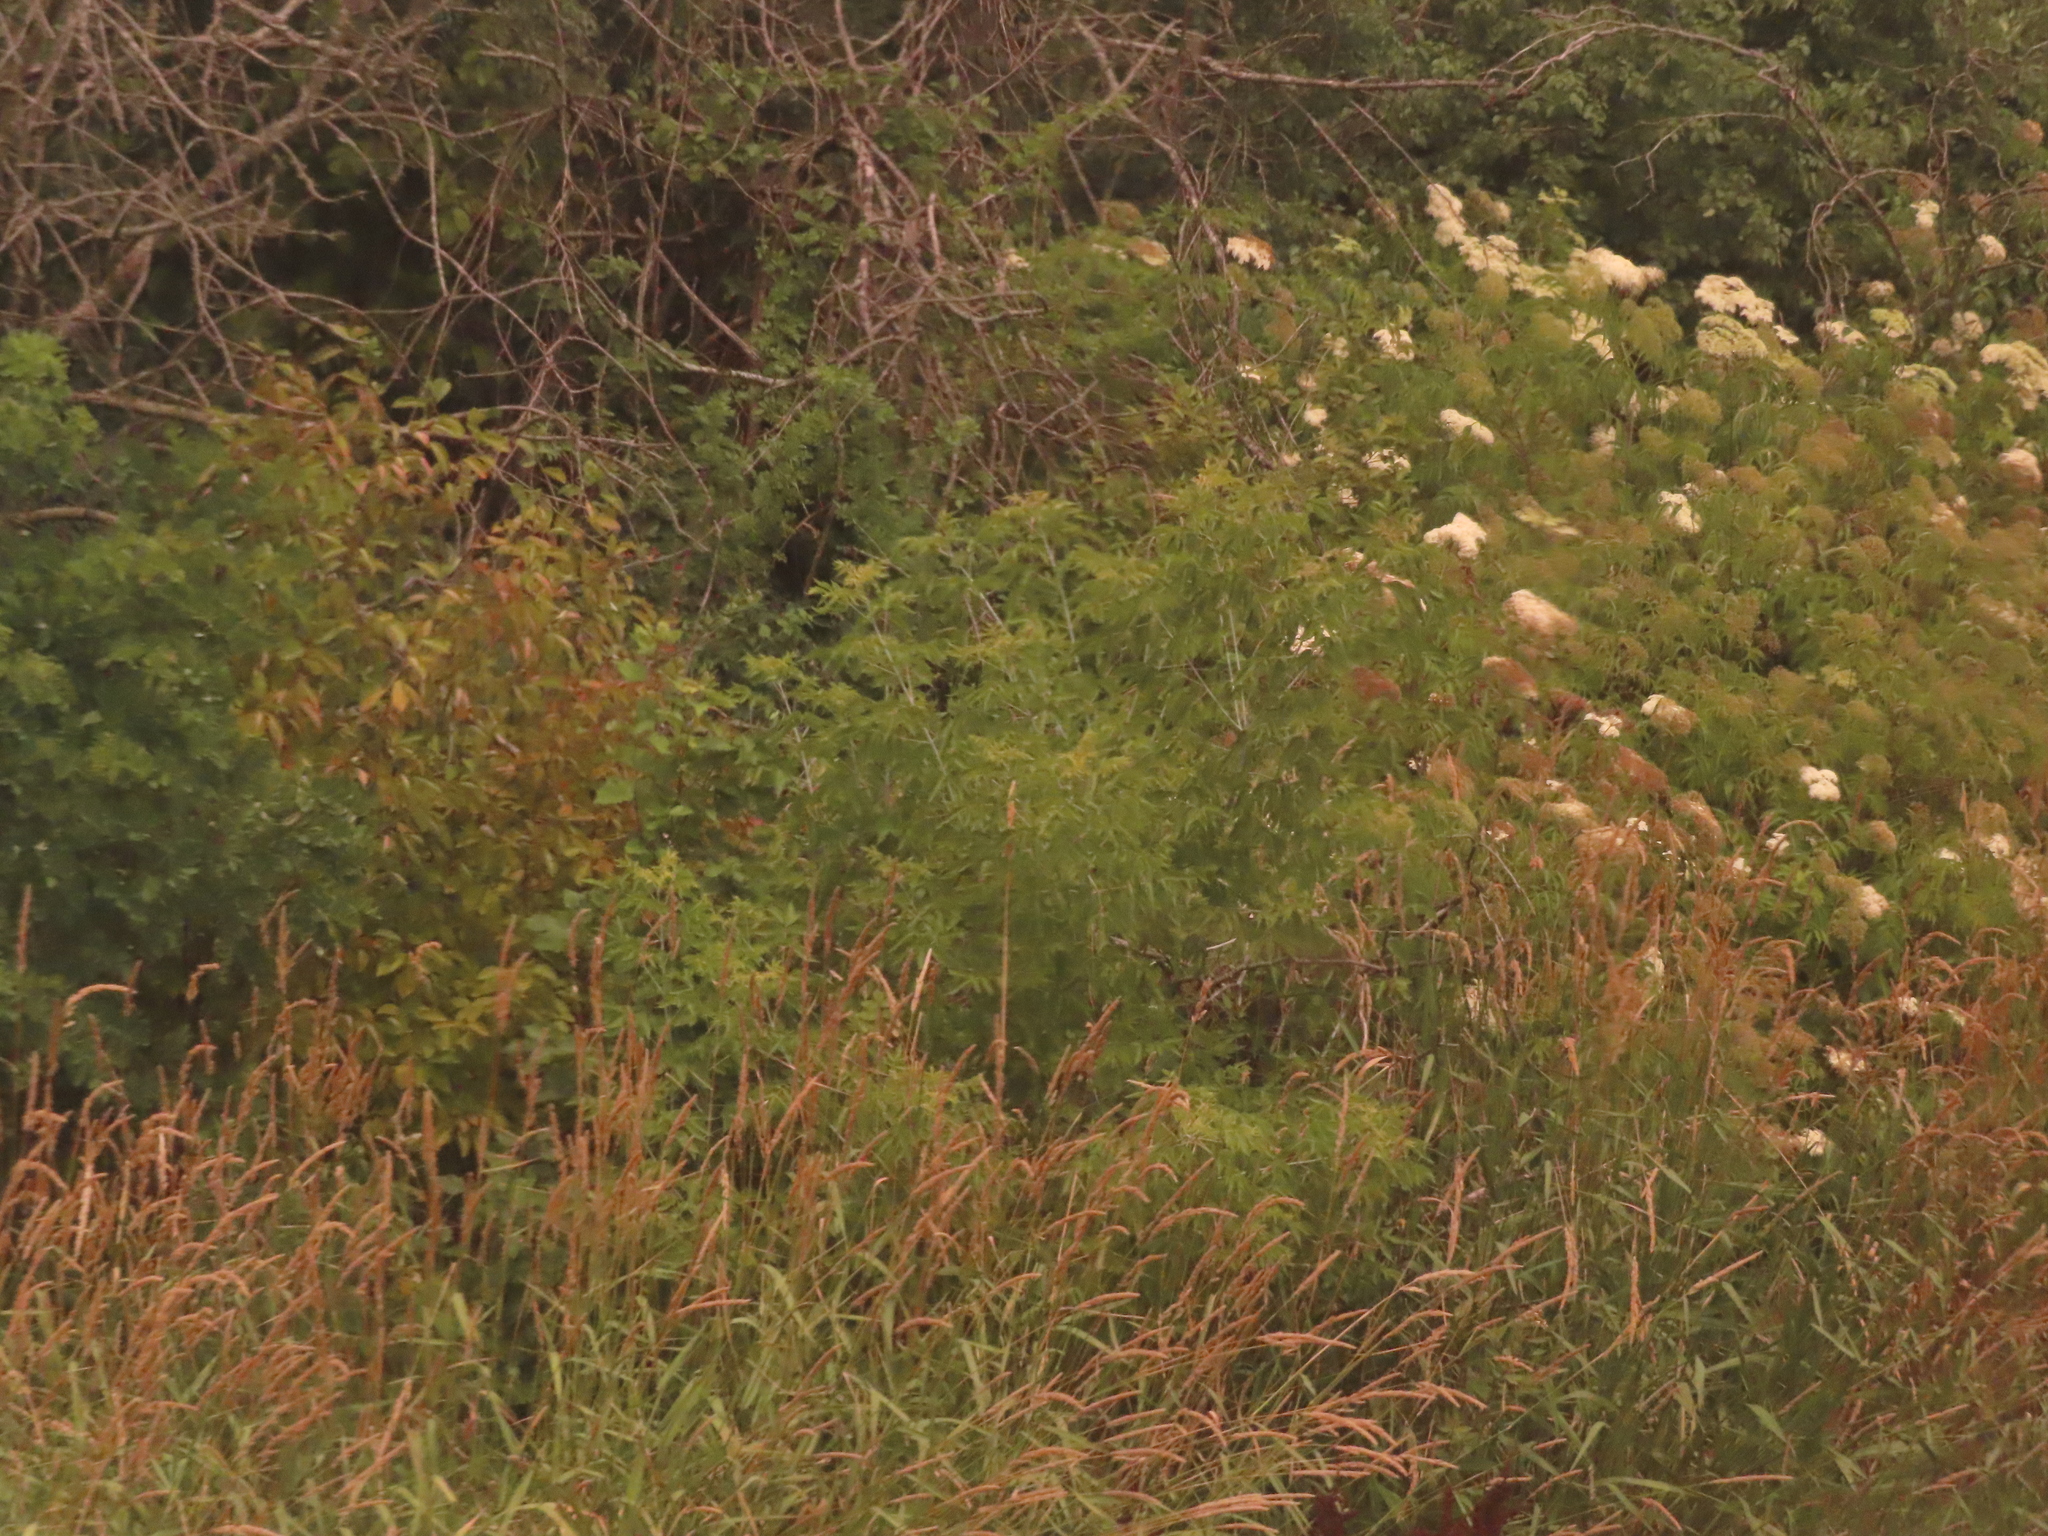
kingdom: Plantae
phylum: Tracheophyta
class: Magnoliopsida
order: Sapindales
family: Sapindaceae
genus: Acer
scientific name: Acer negundo
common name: Ashleaf maple
